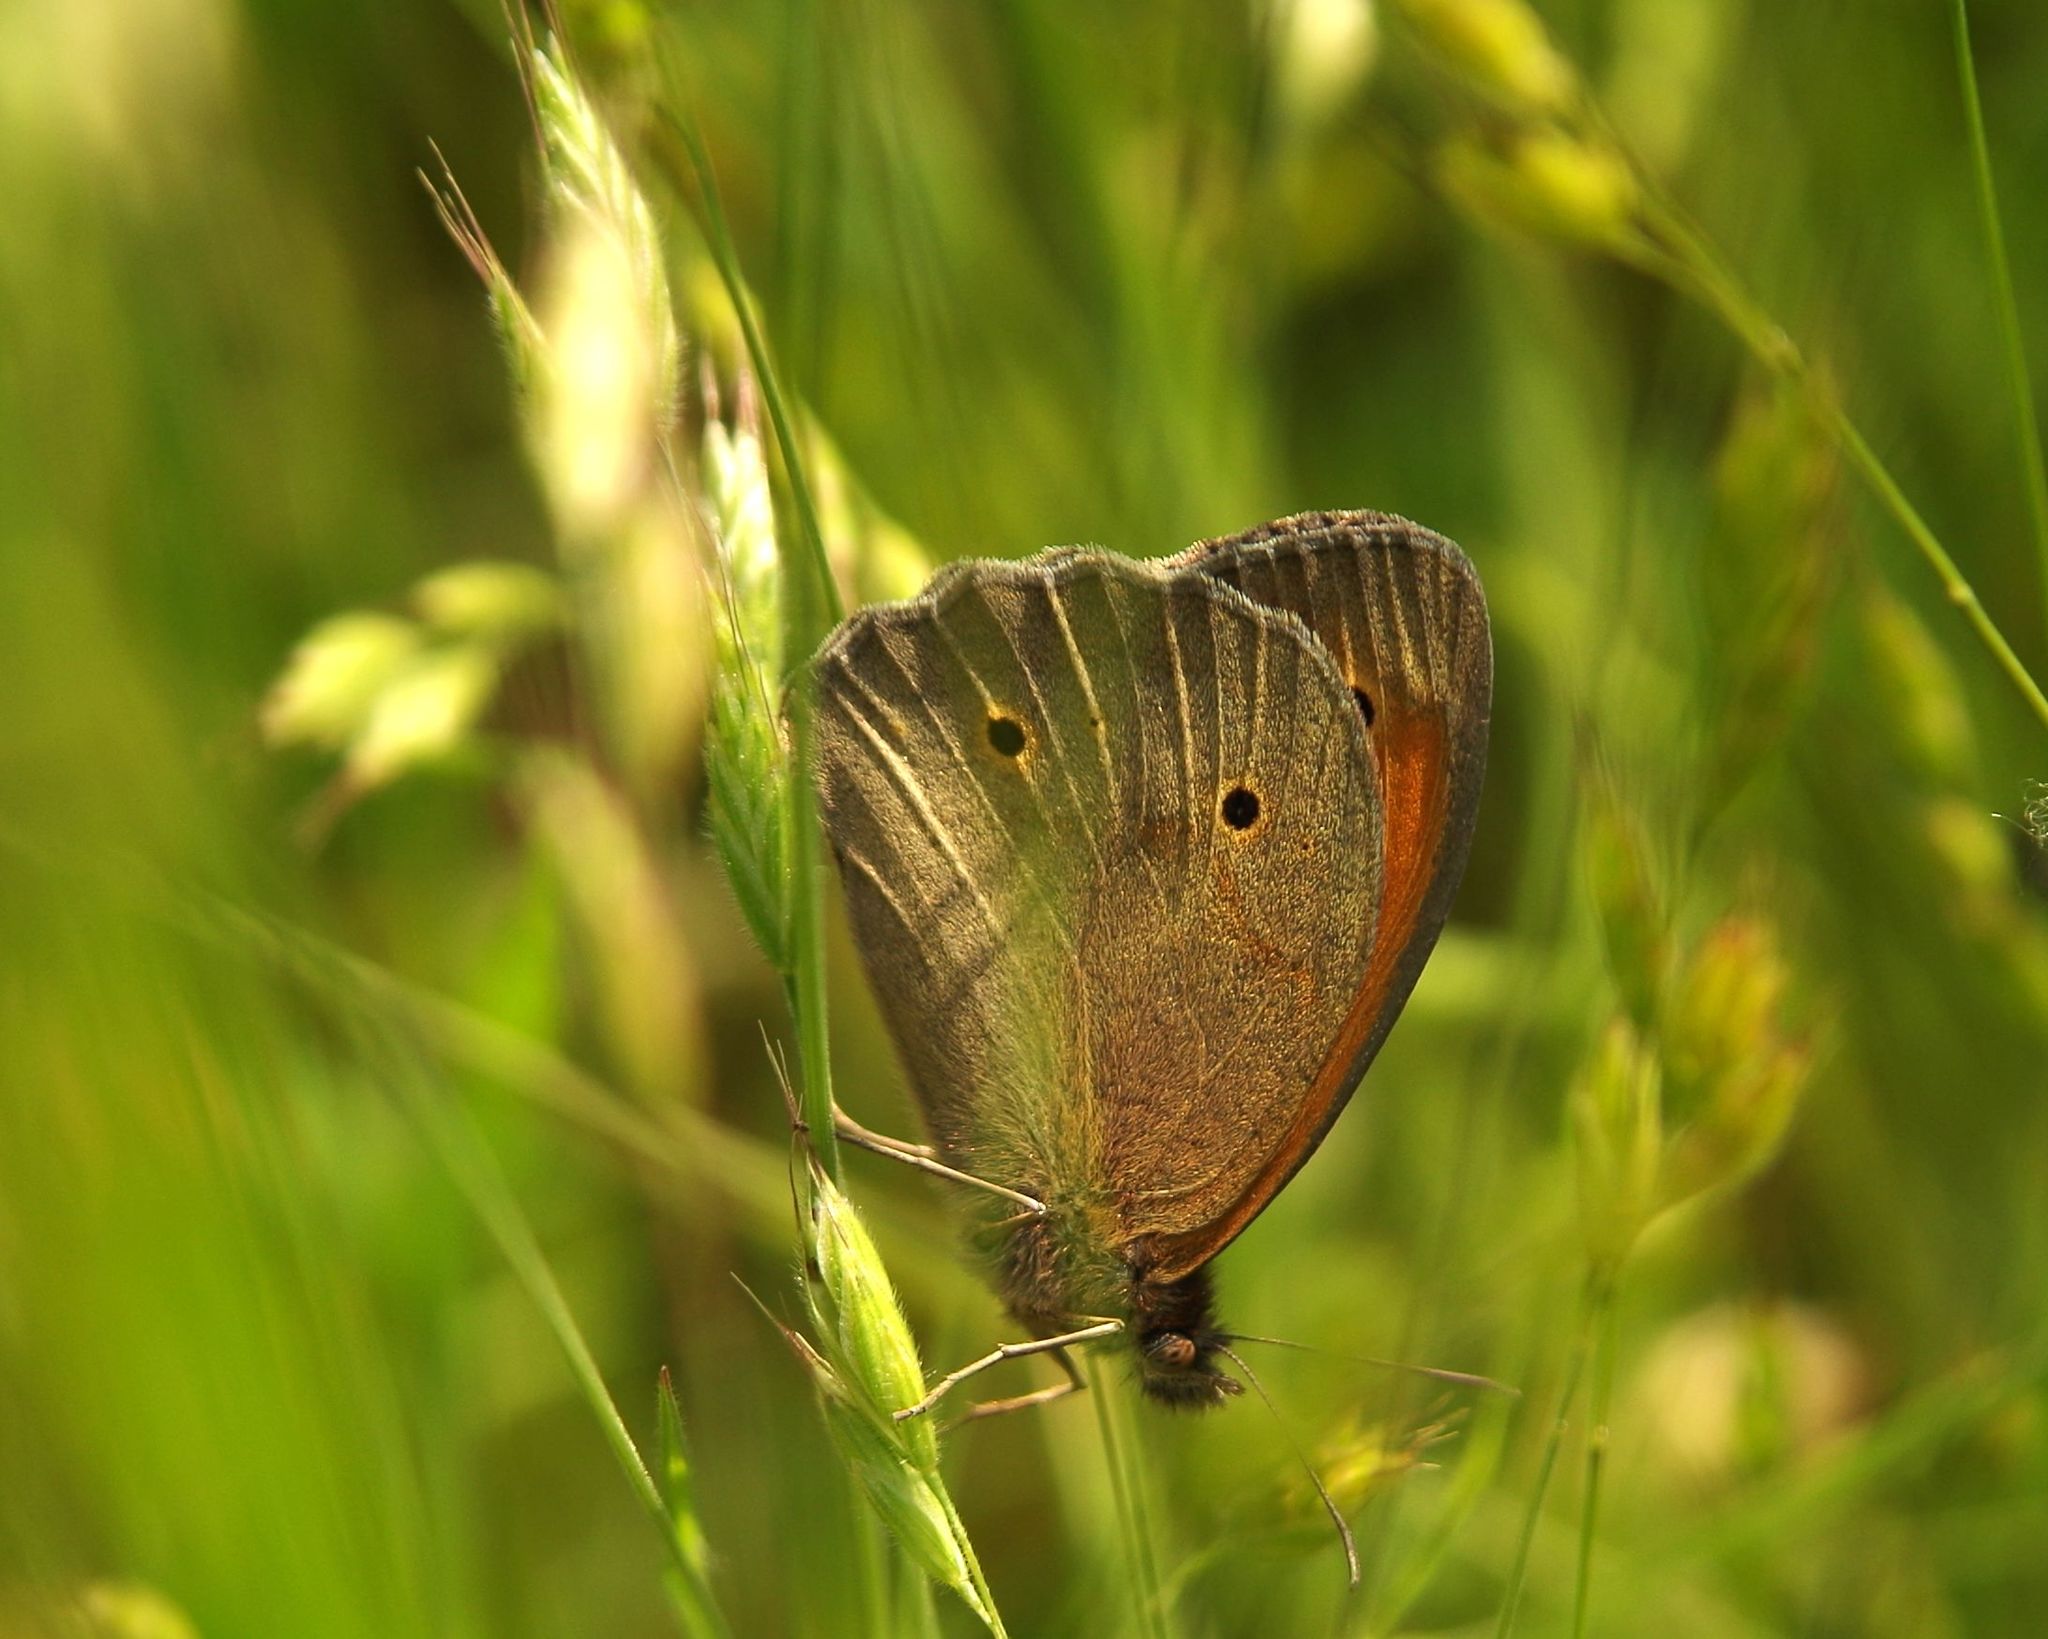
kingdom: Animalia
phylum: Arthropoda
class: Insecta
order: Lepidoptera
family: Nymphalidae
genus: Maniola
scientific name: Maniola jurtina
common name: Meadow brown
